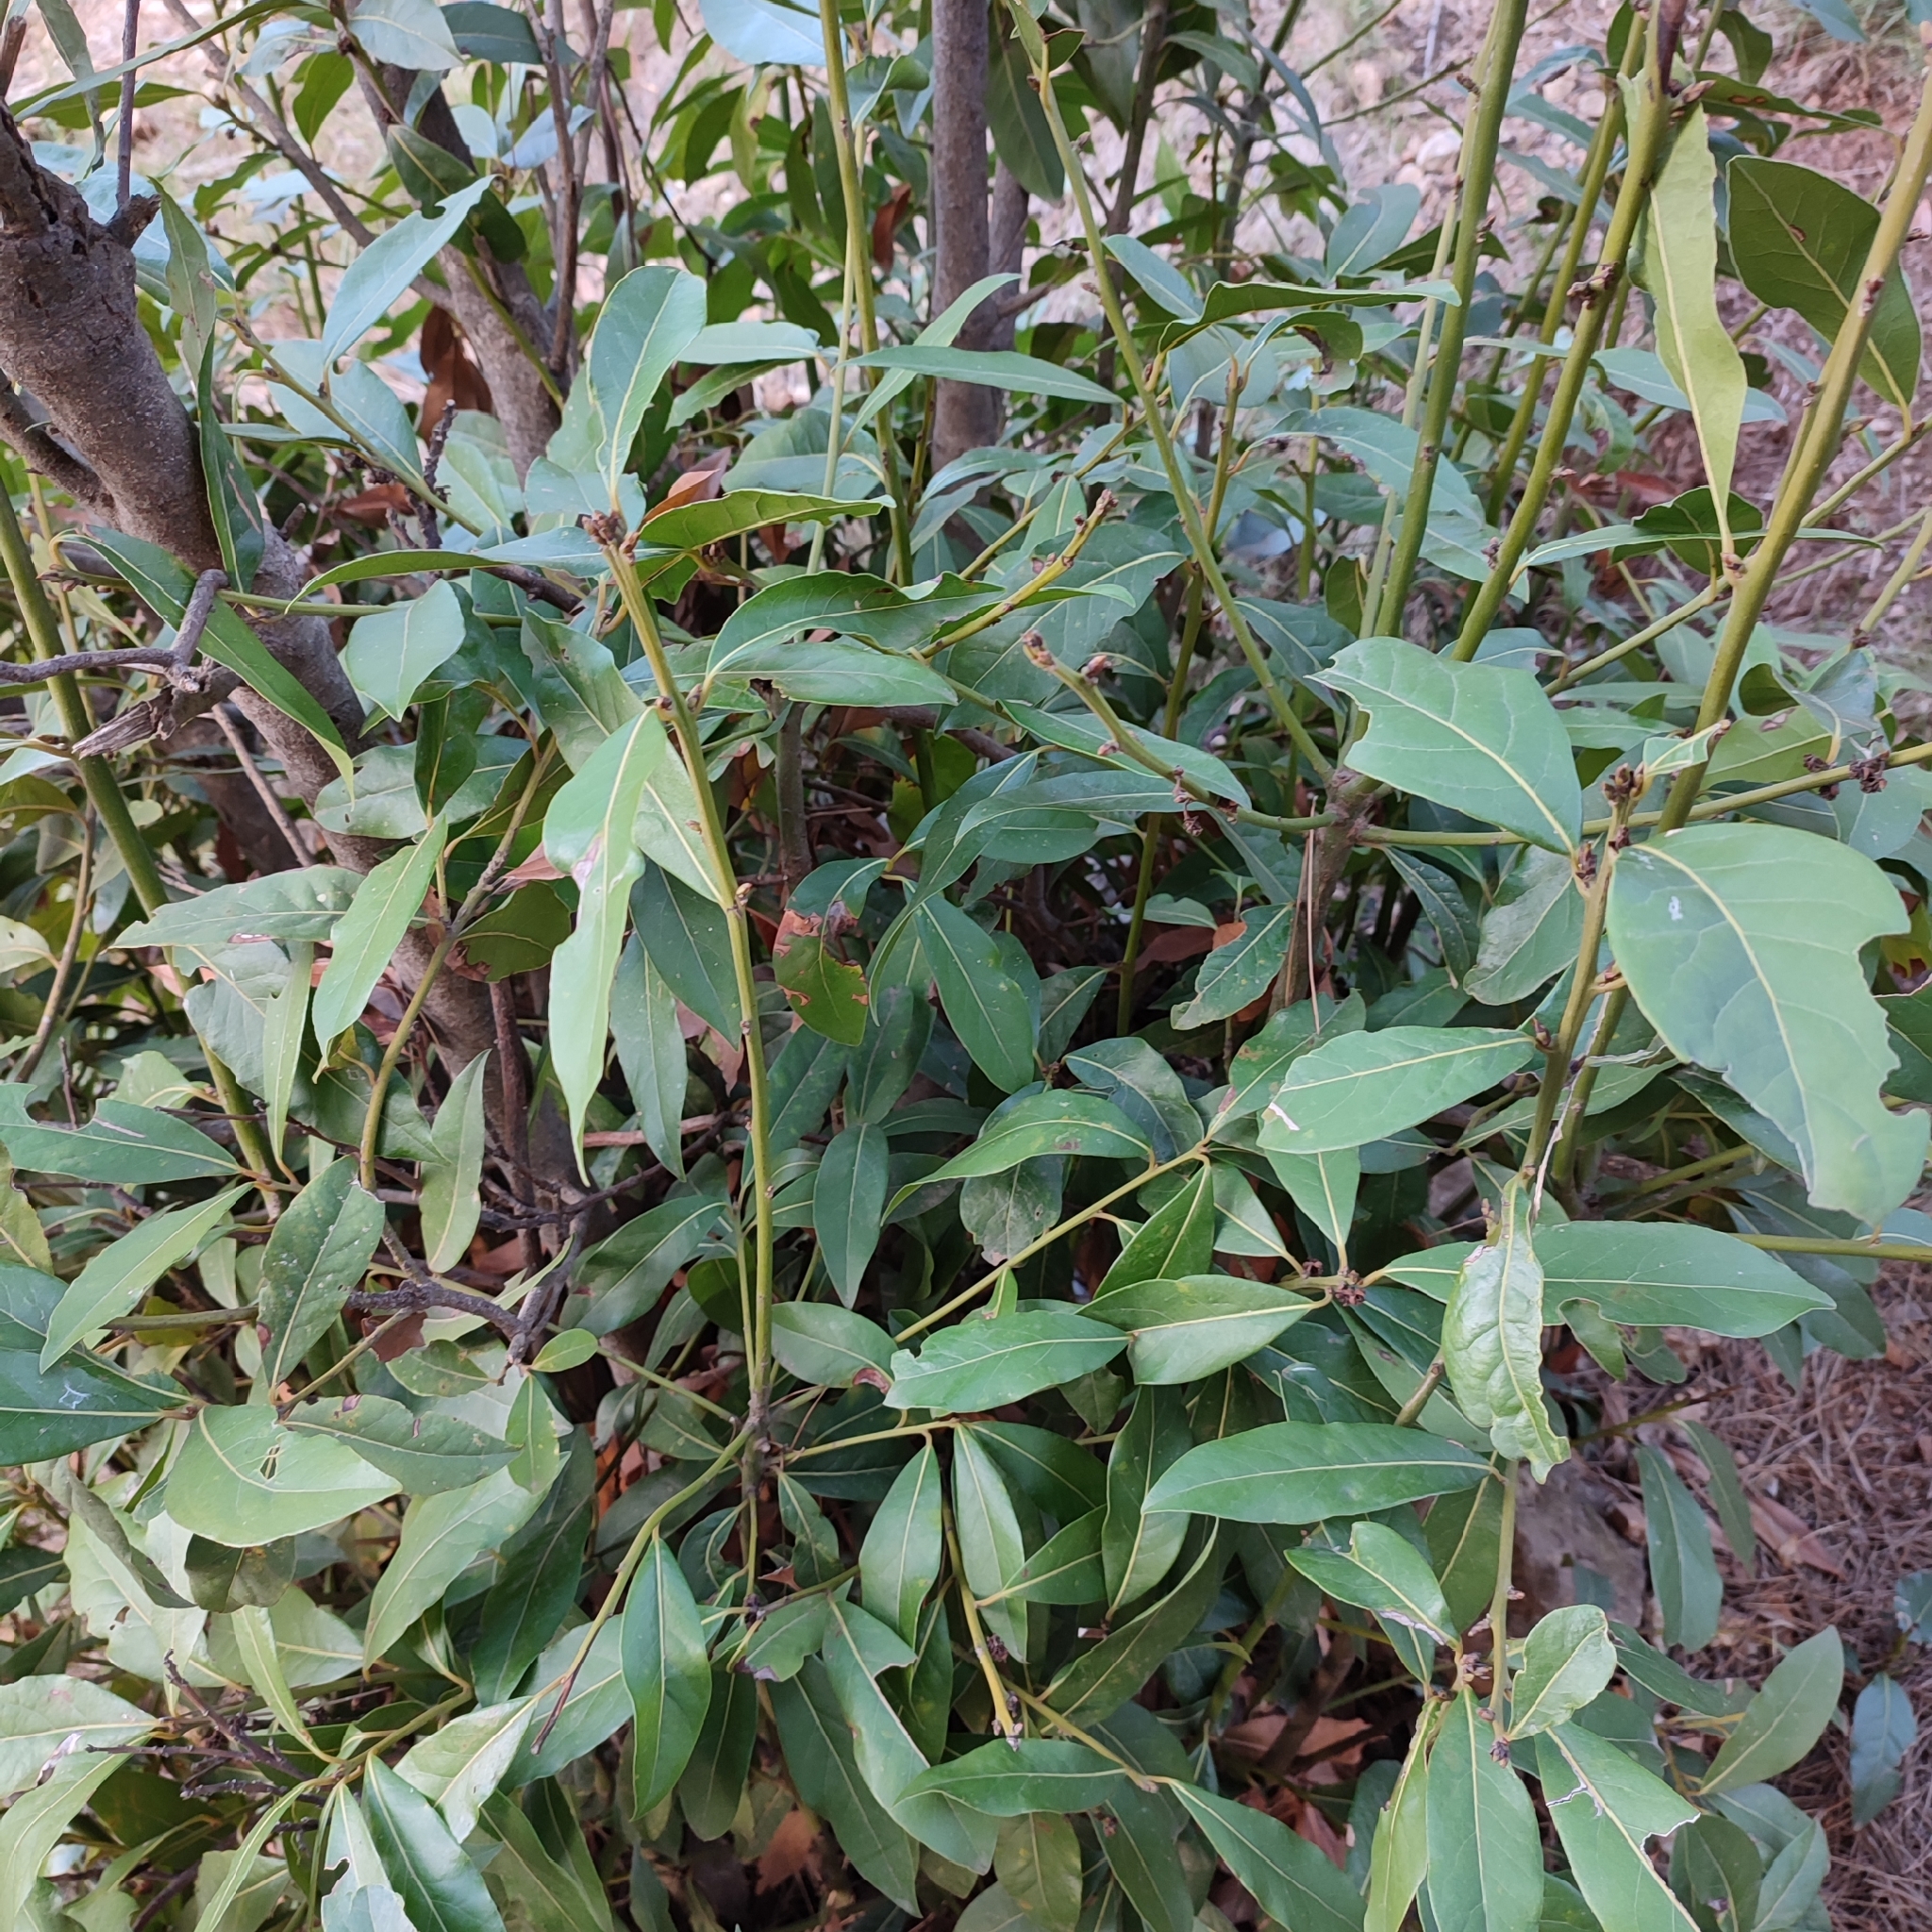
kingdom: Plantae
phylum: Tracheophyta
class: Magnoliopsida
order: Laurales
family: Lauraceae
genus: Laurus
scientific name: Laurus nobilis
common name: Bay
